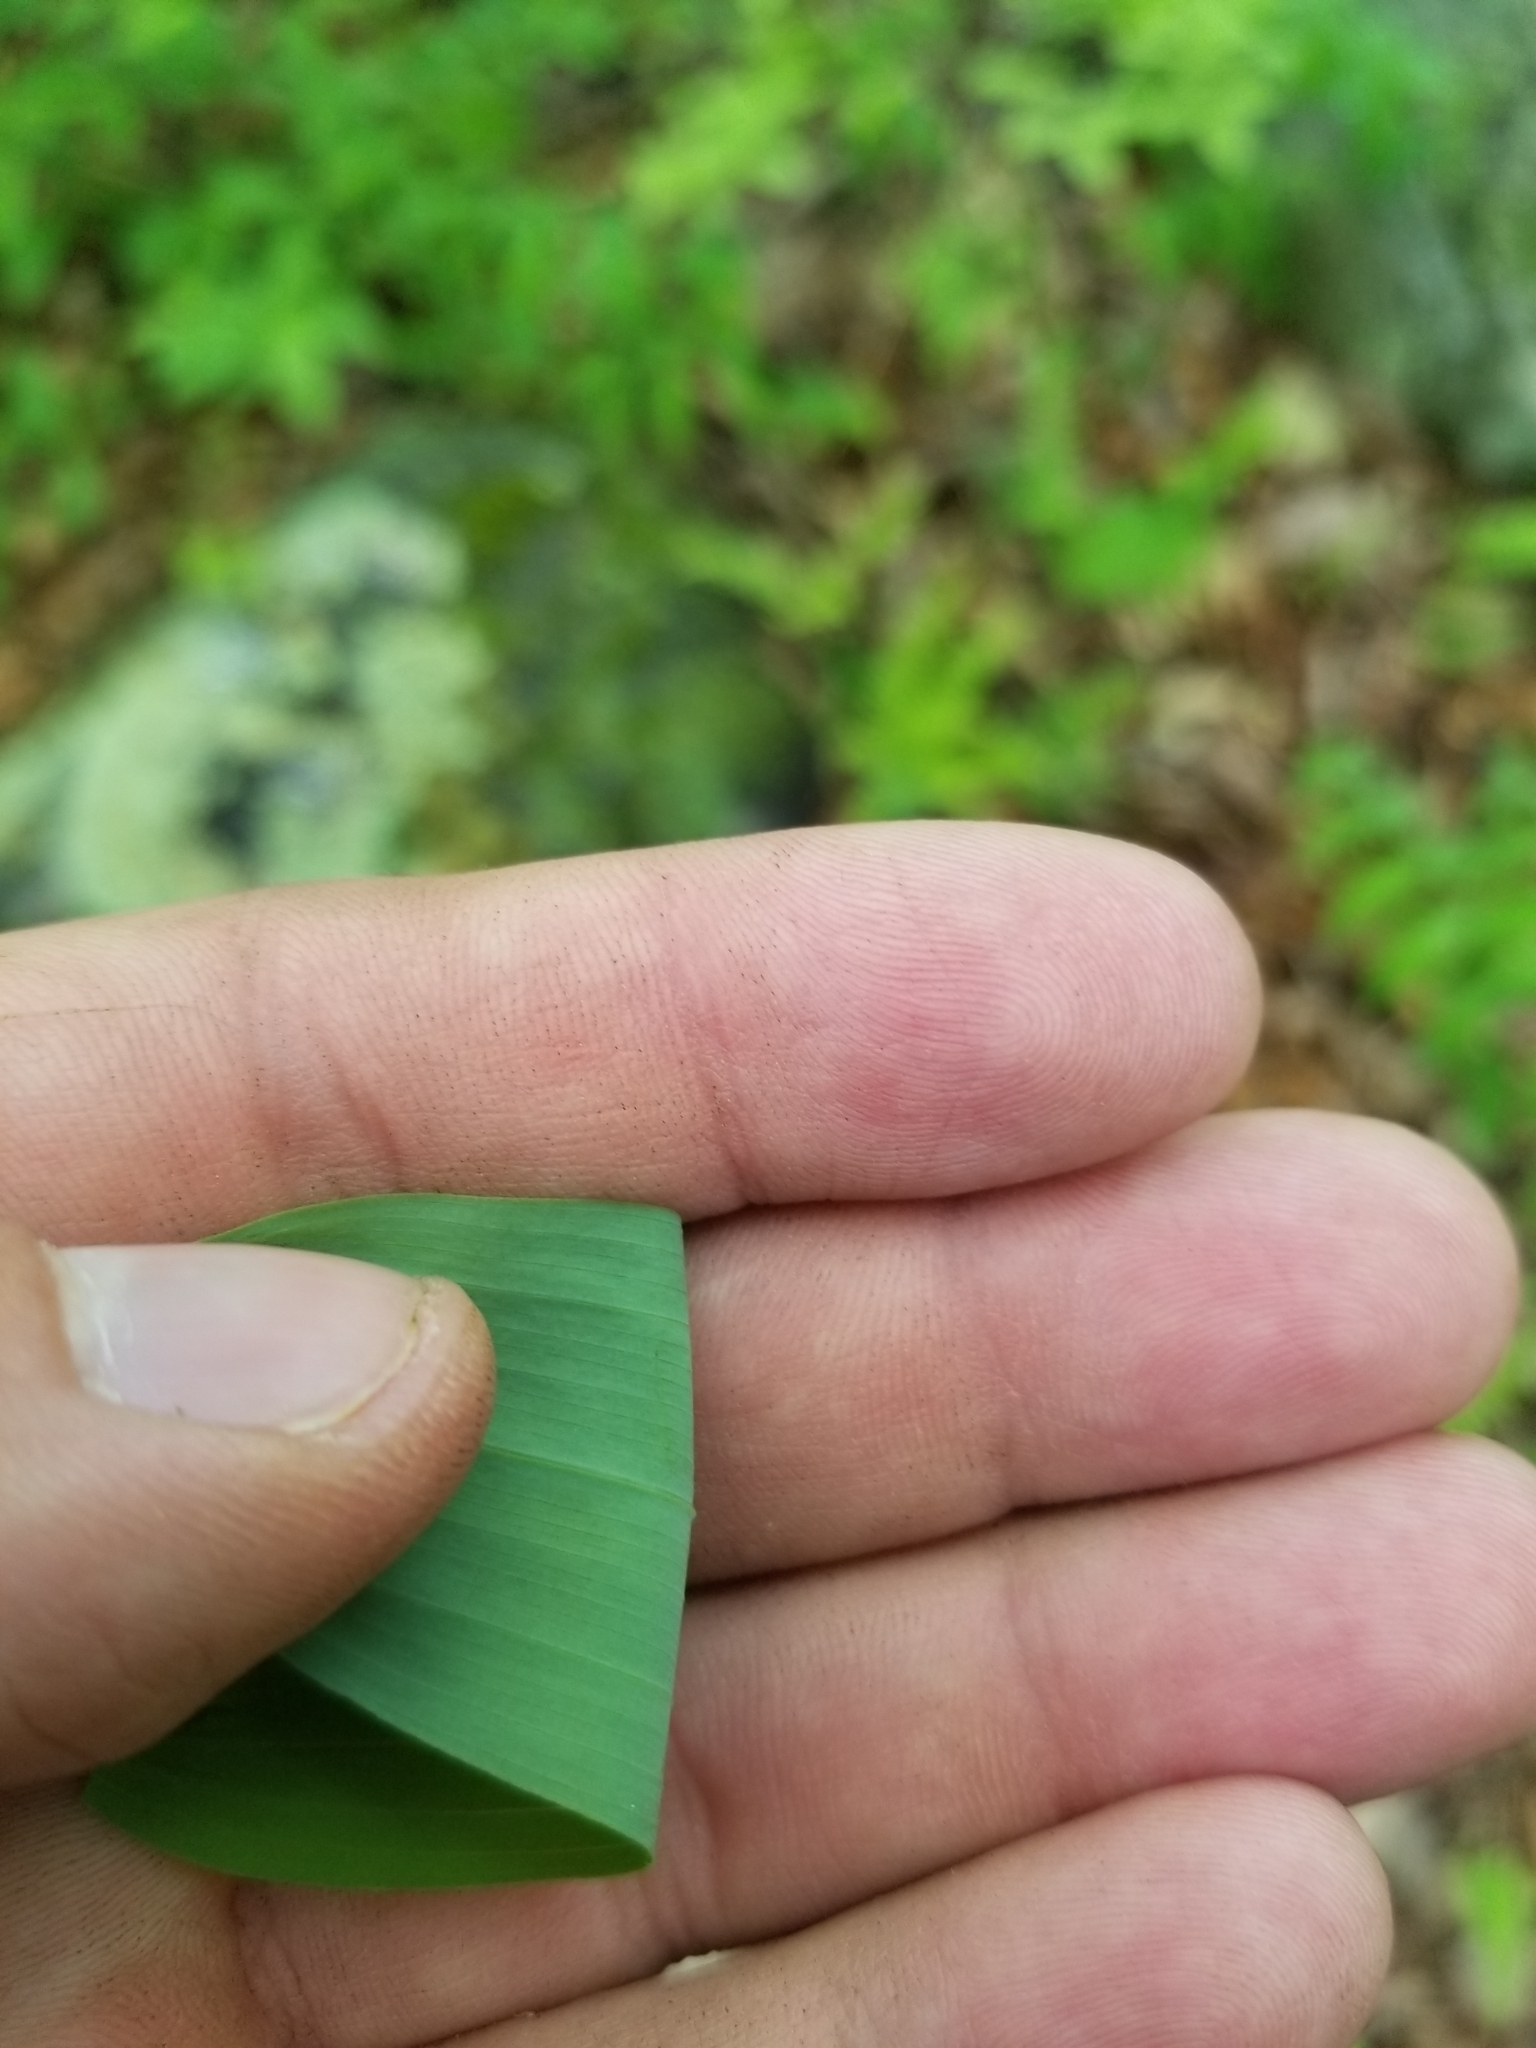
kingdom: Plantae
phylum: Tracheophyta
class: Liliopsida
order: Asparagales
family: Asparagaceae
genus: Polygonatum
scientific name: Polygonatum biflorum
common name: American solomon's-seal
